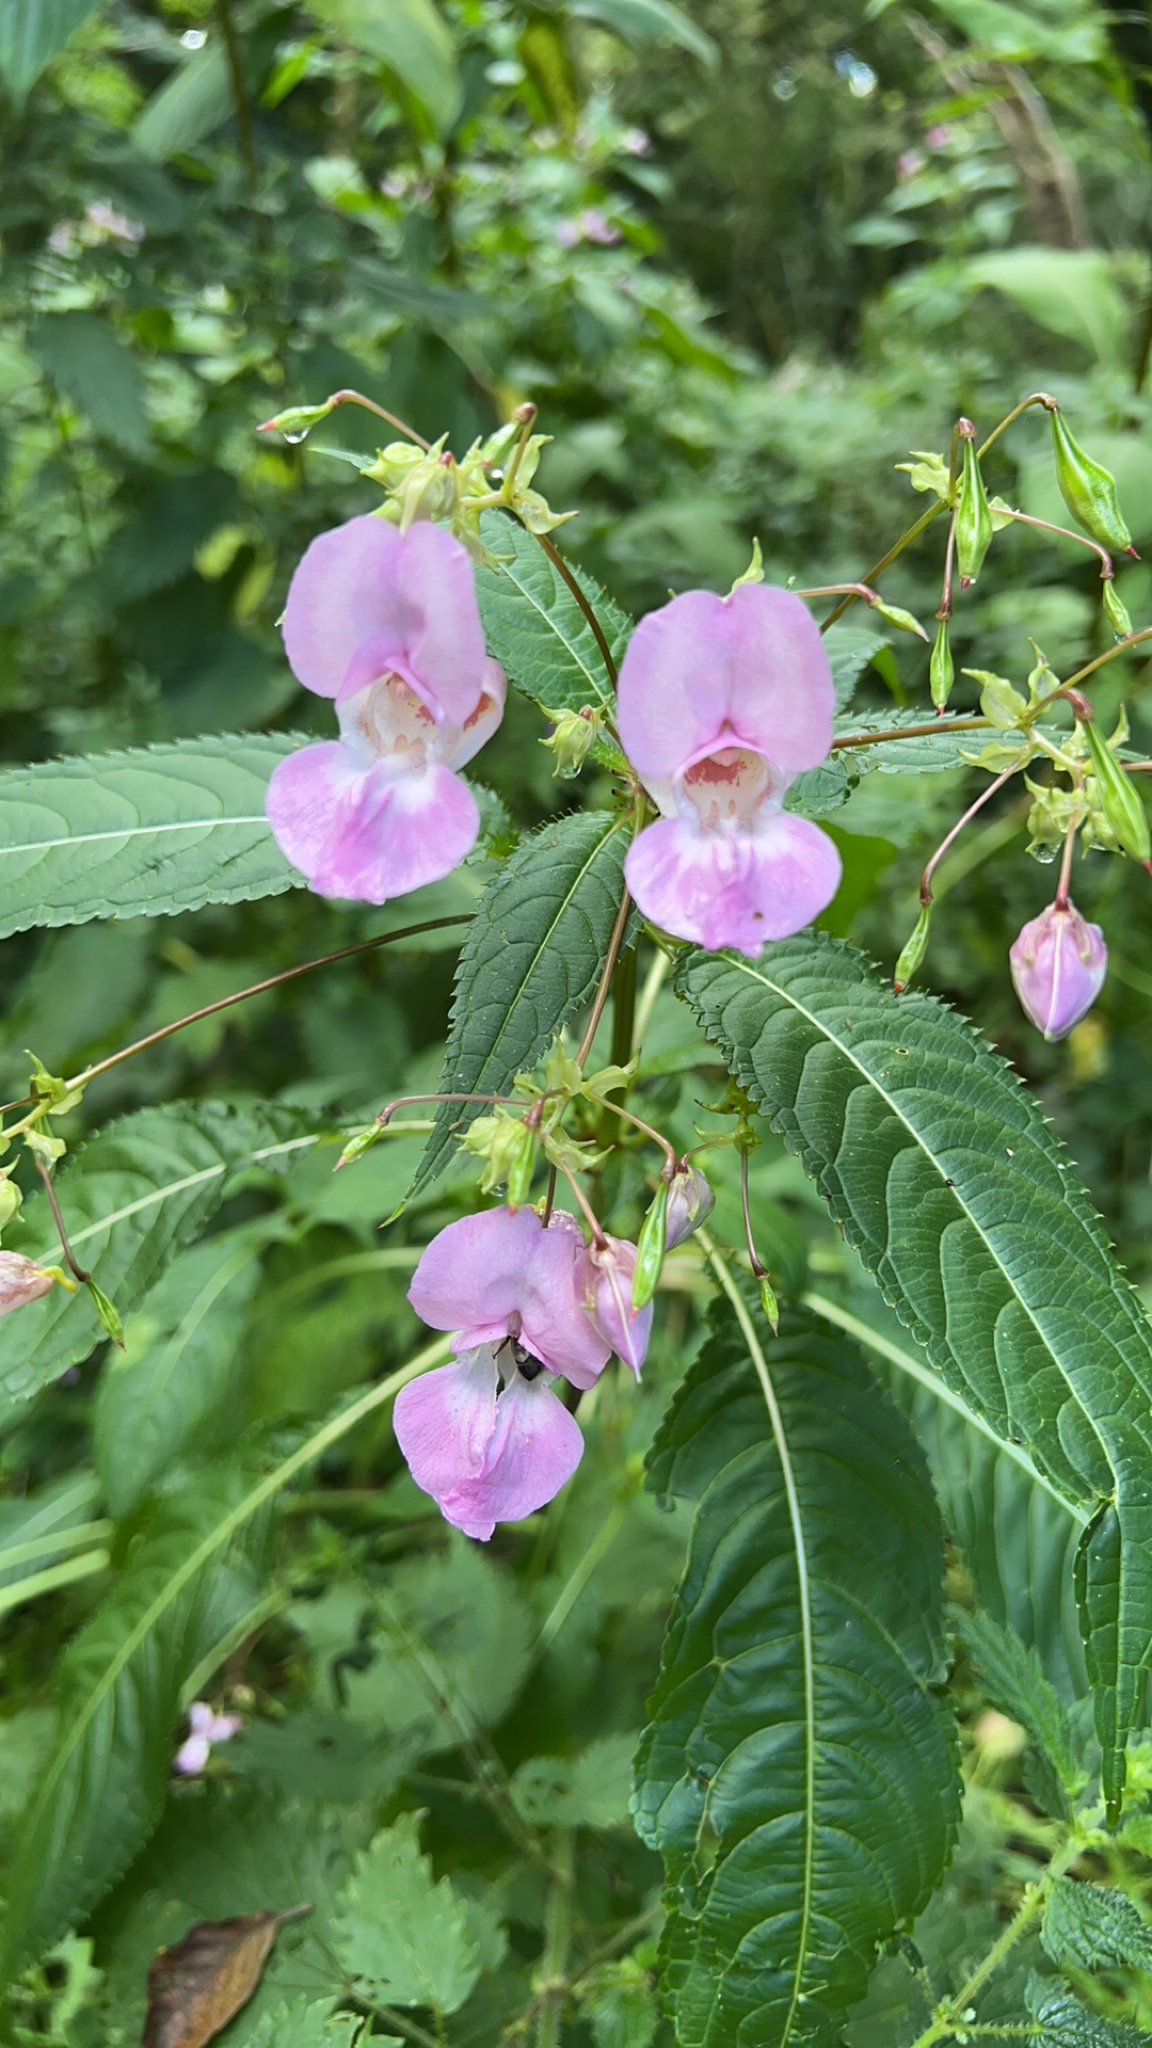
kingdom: Plantae
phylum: Tracheophyta
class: Magnoliopsida
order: Ericales
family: Balsaminaceae
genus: Impatiens
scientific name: Impatiens glandulifera
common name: Himalayan balsam
